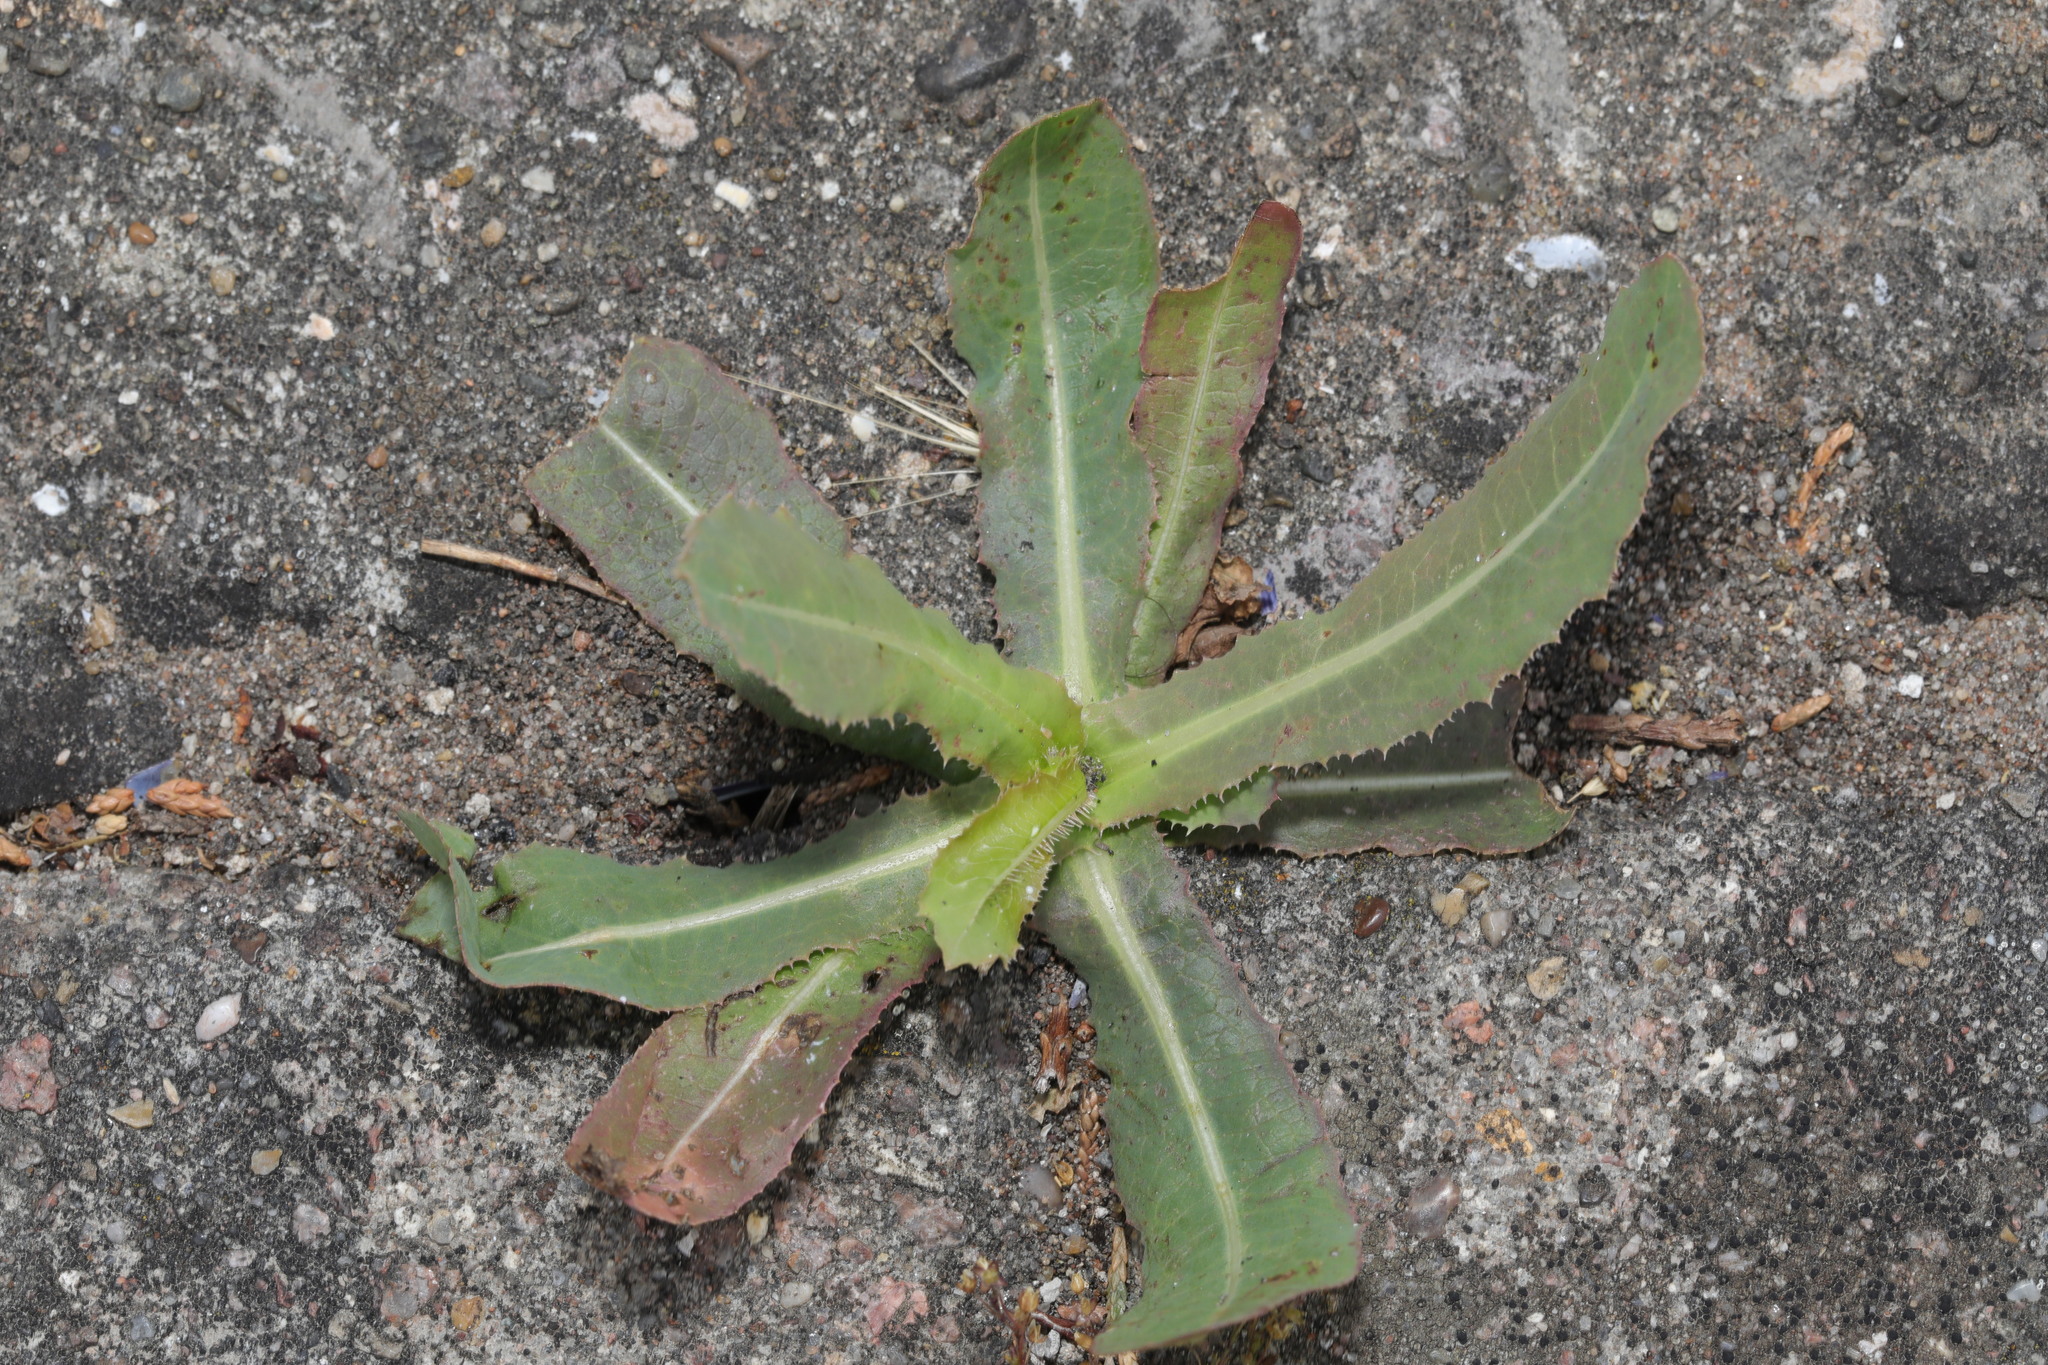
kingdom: Plantae
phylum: Tracheophyta
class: Magnoliopsida
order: Asterales
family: Asteraceae
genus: Lactuca
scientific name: Lactuca serriola
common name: Prickly lettuce
